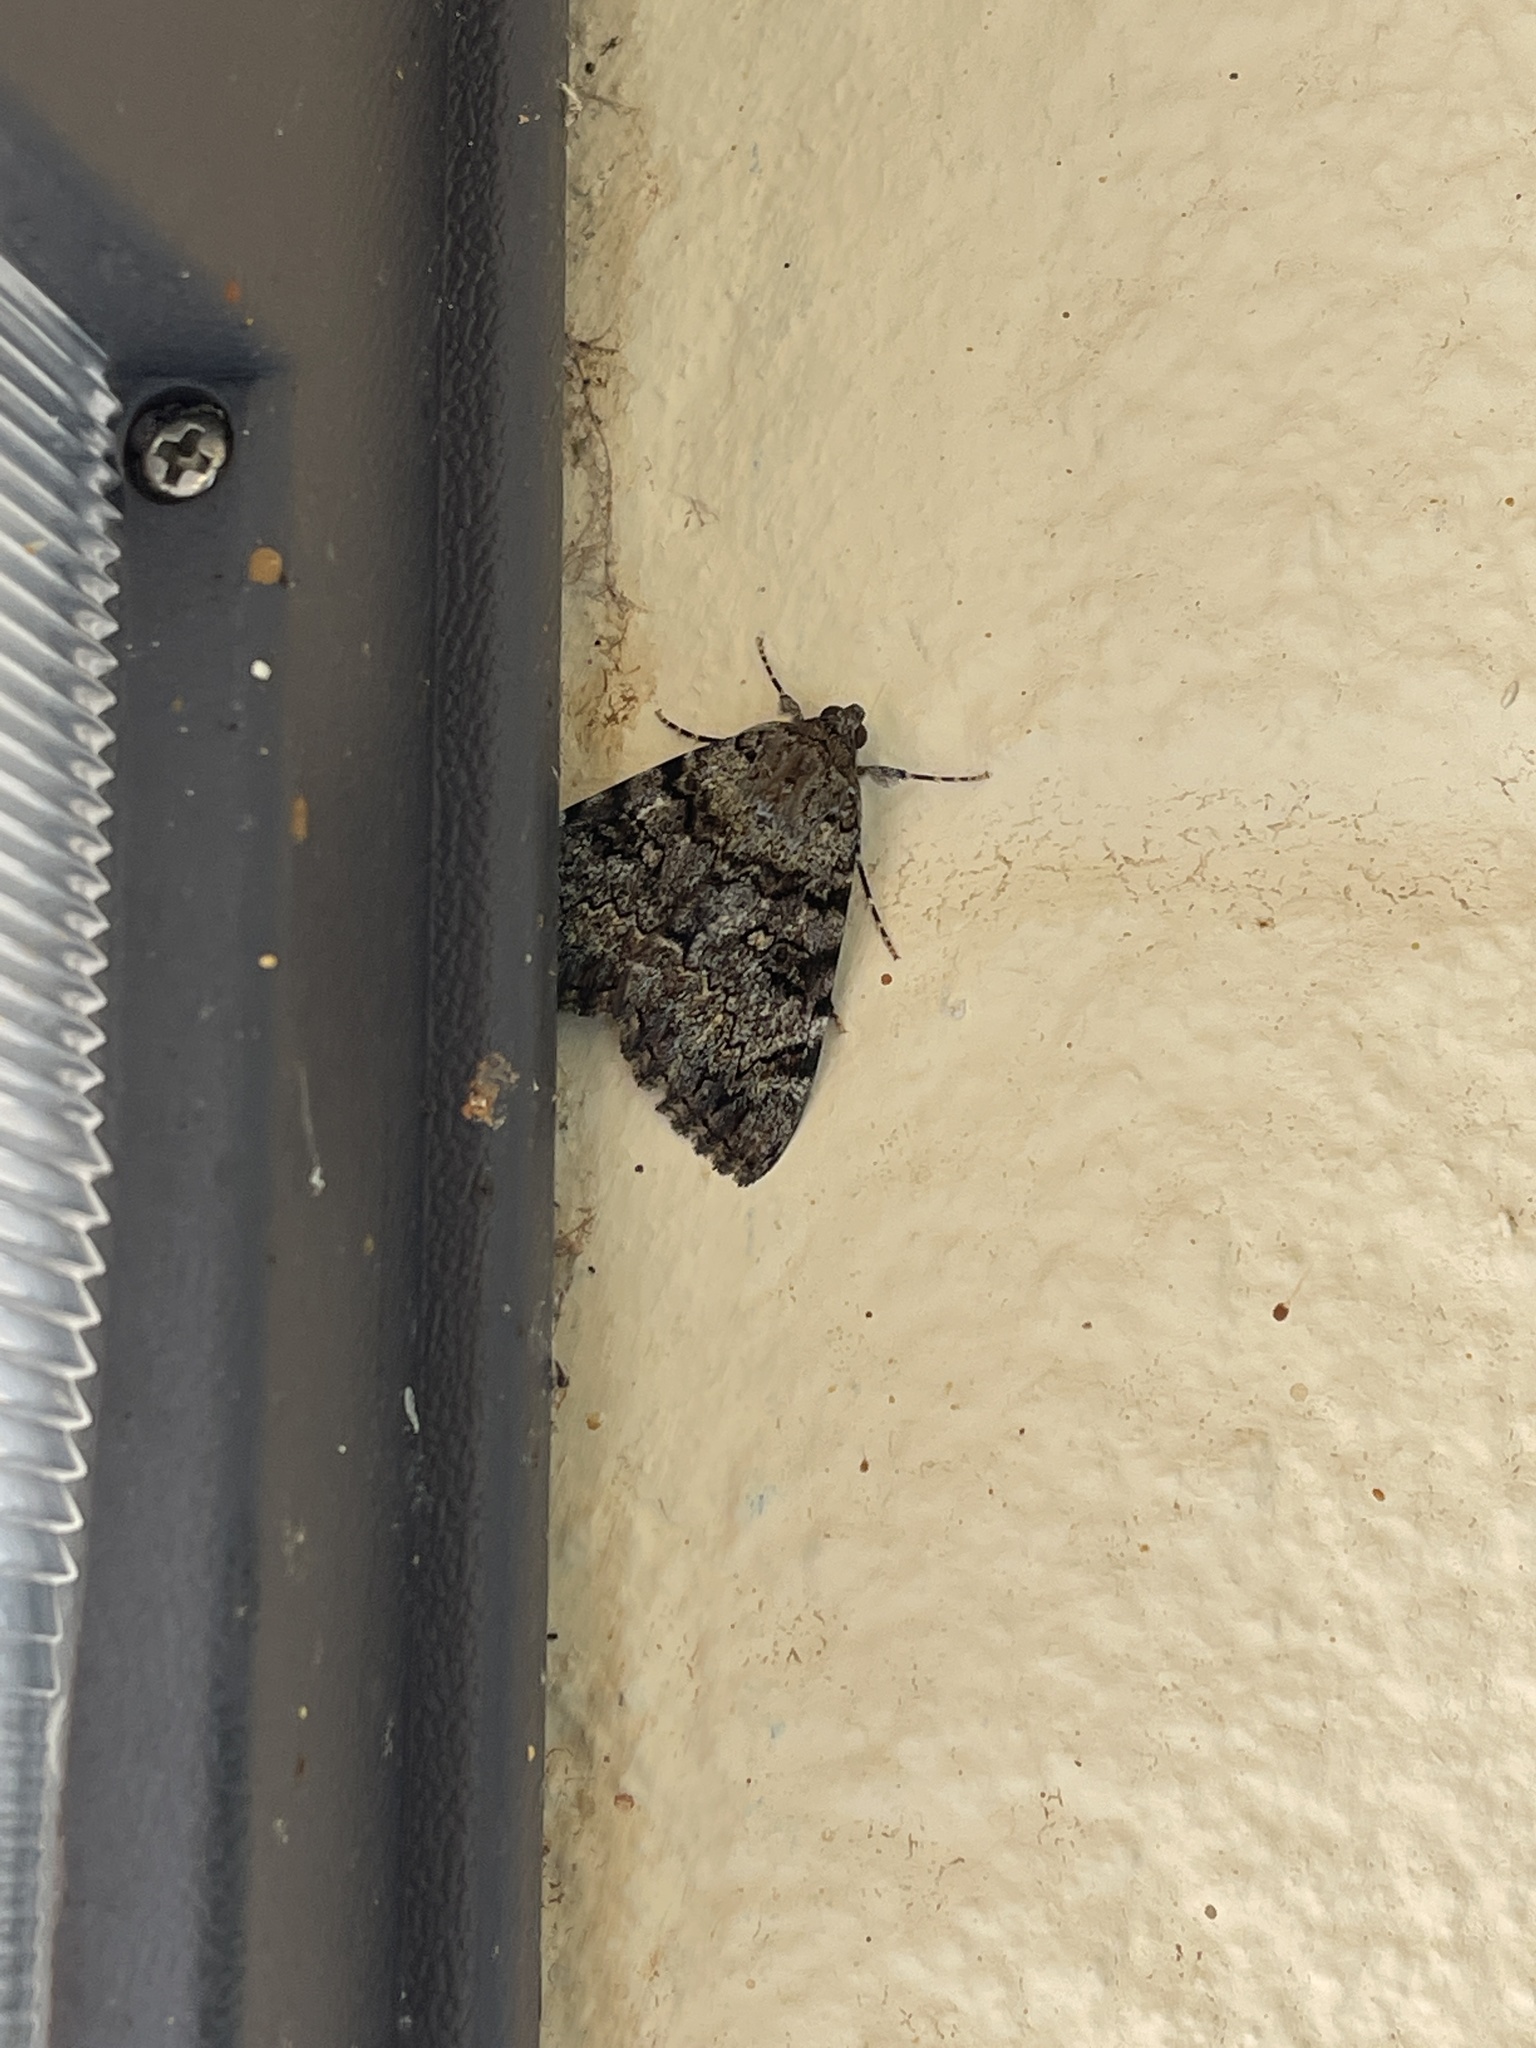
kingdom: Animalia
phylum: Arthropoda
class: Insecta
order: Lepidoptera
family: Erebidae
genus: Catocala
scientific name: Catocala desdemona
